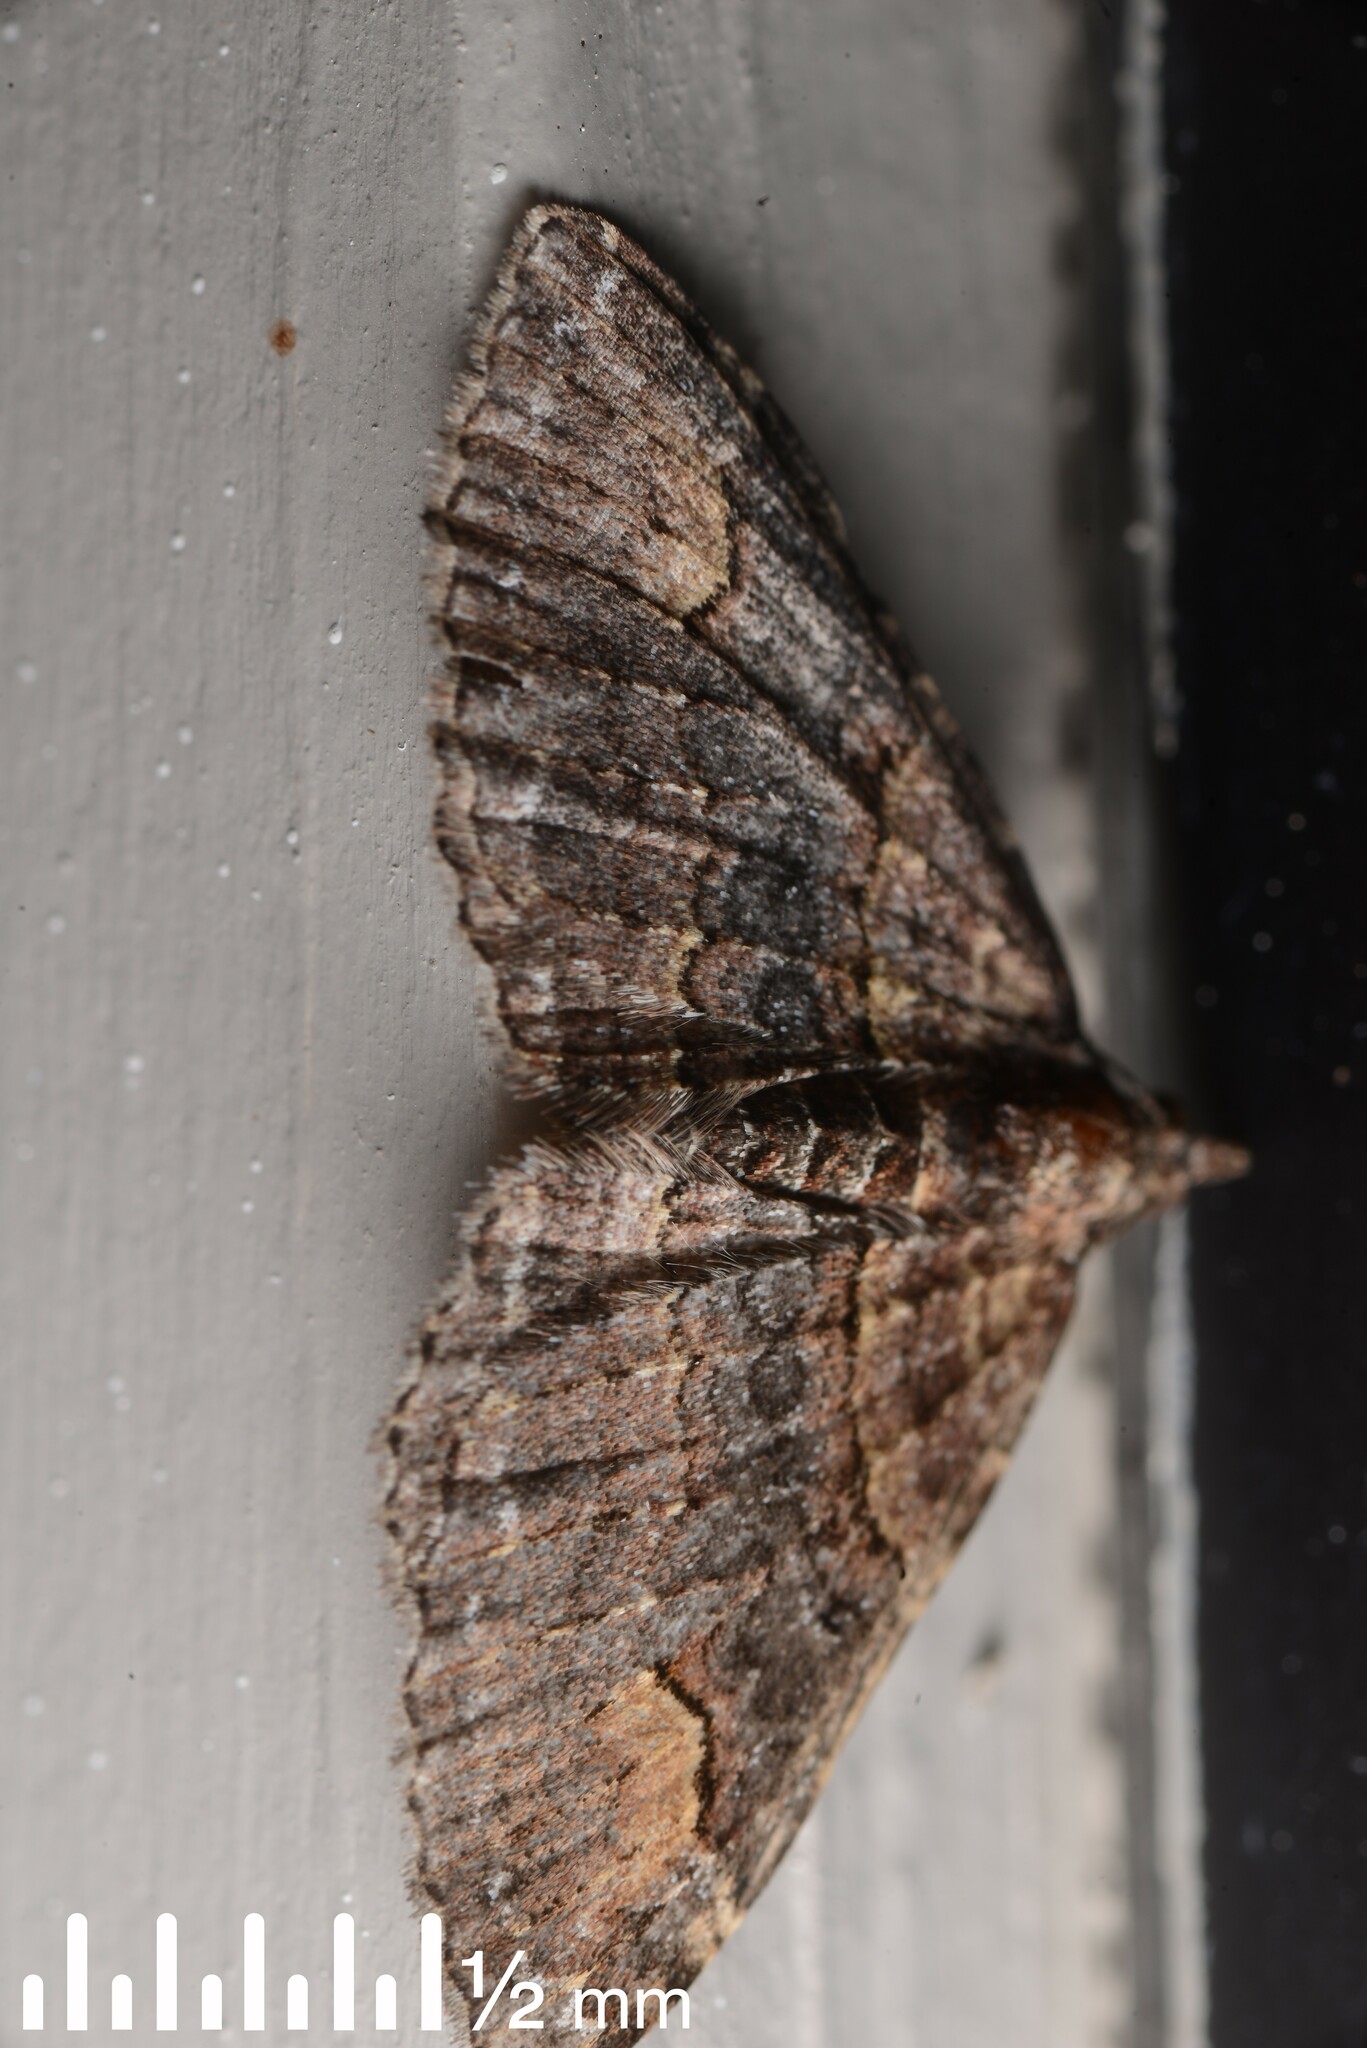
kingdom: Animalia
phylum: Arthropoda
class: Insecta
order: Lepidoptera
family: Geometridae
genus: Epyaxa
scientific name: Epyaxa lucidata
